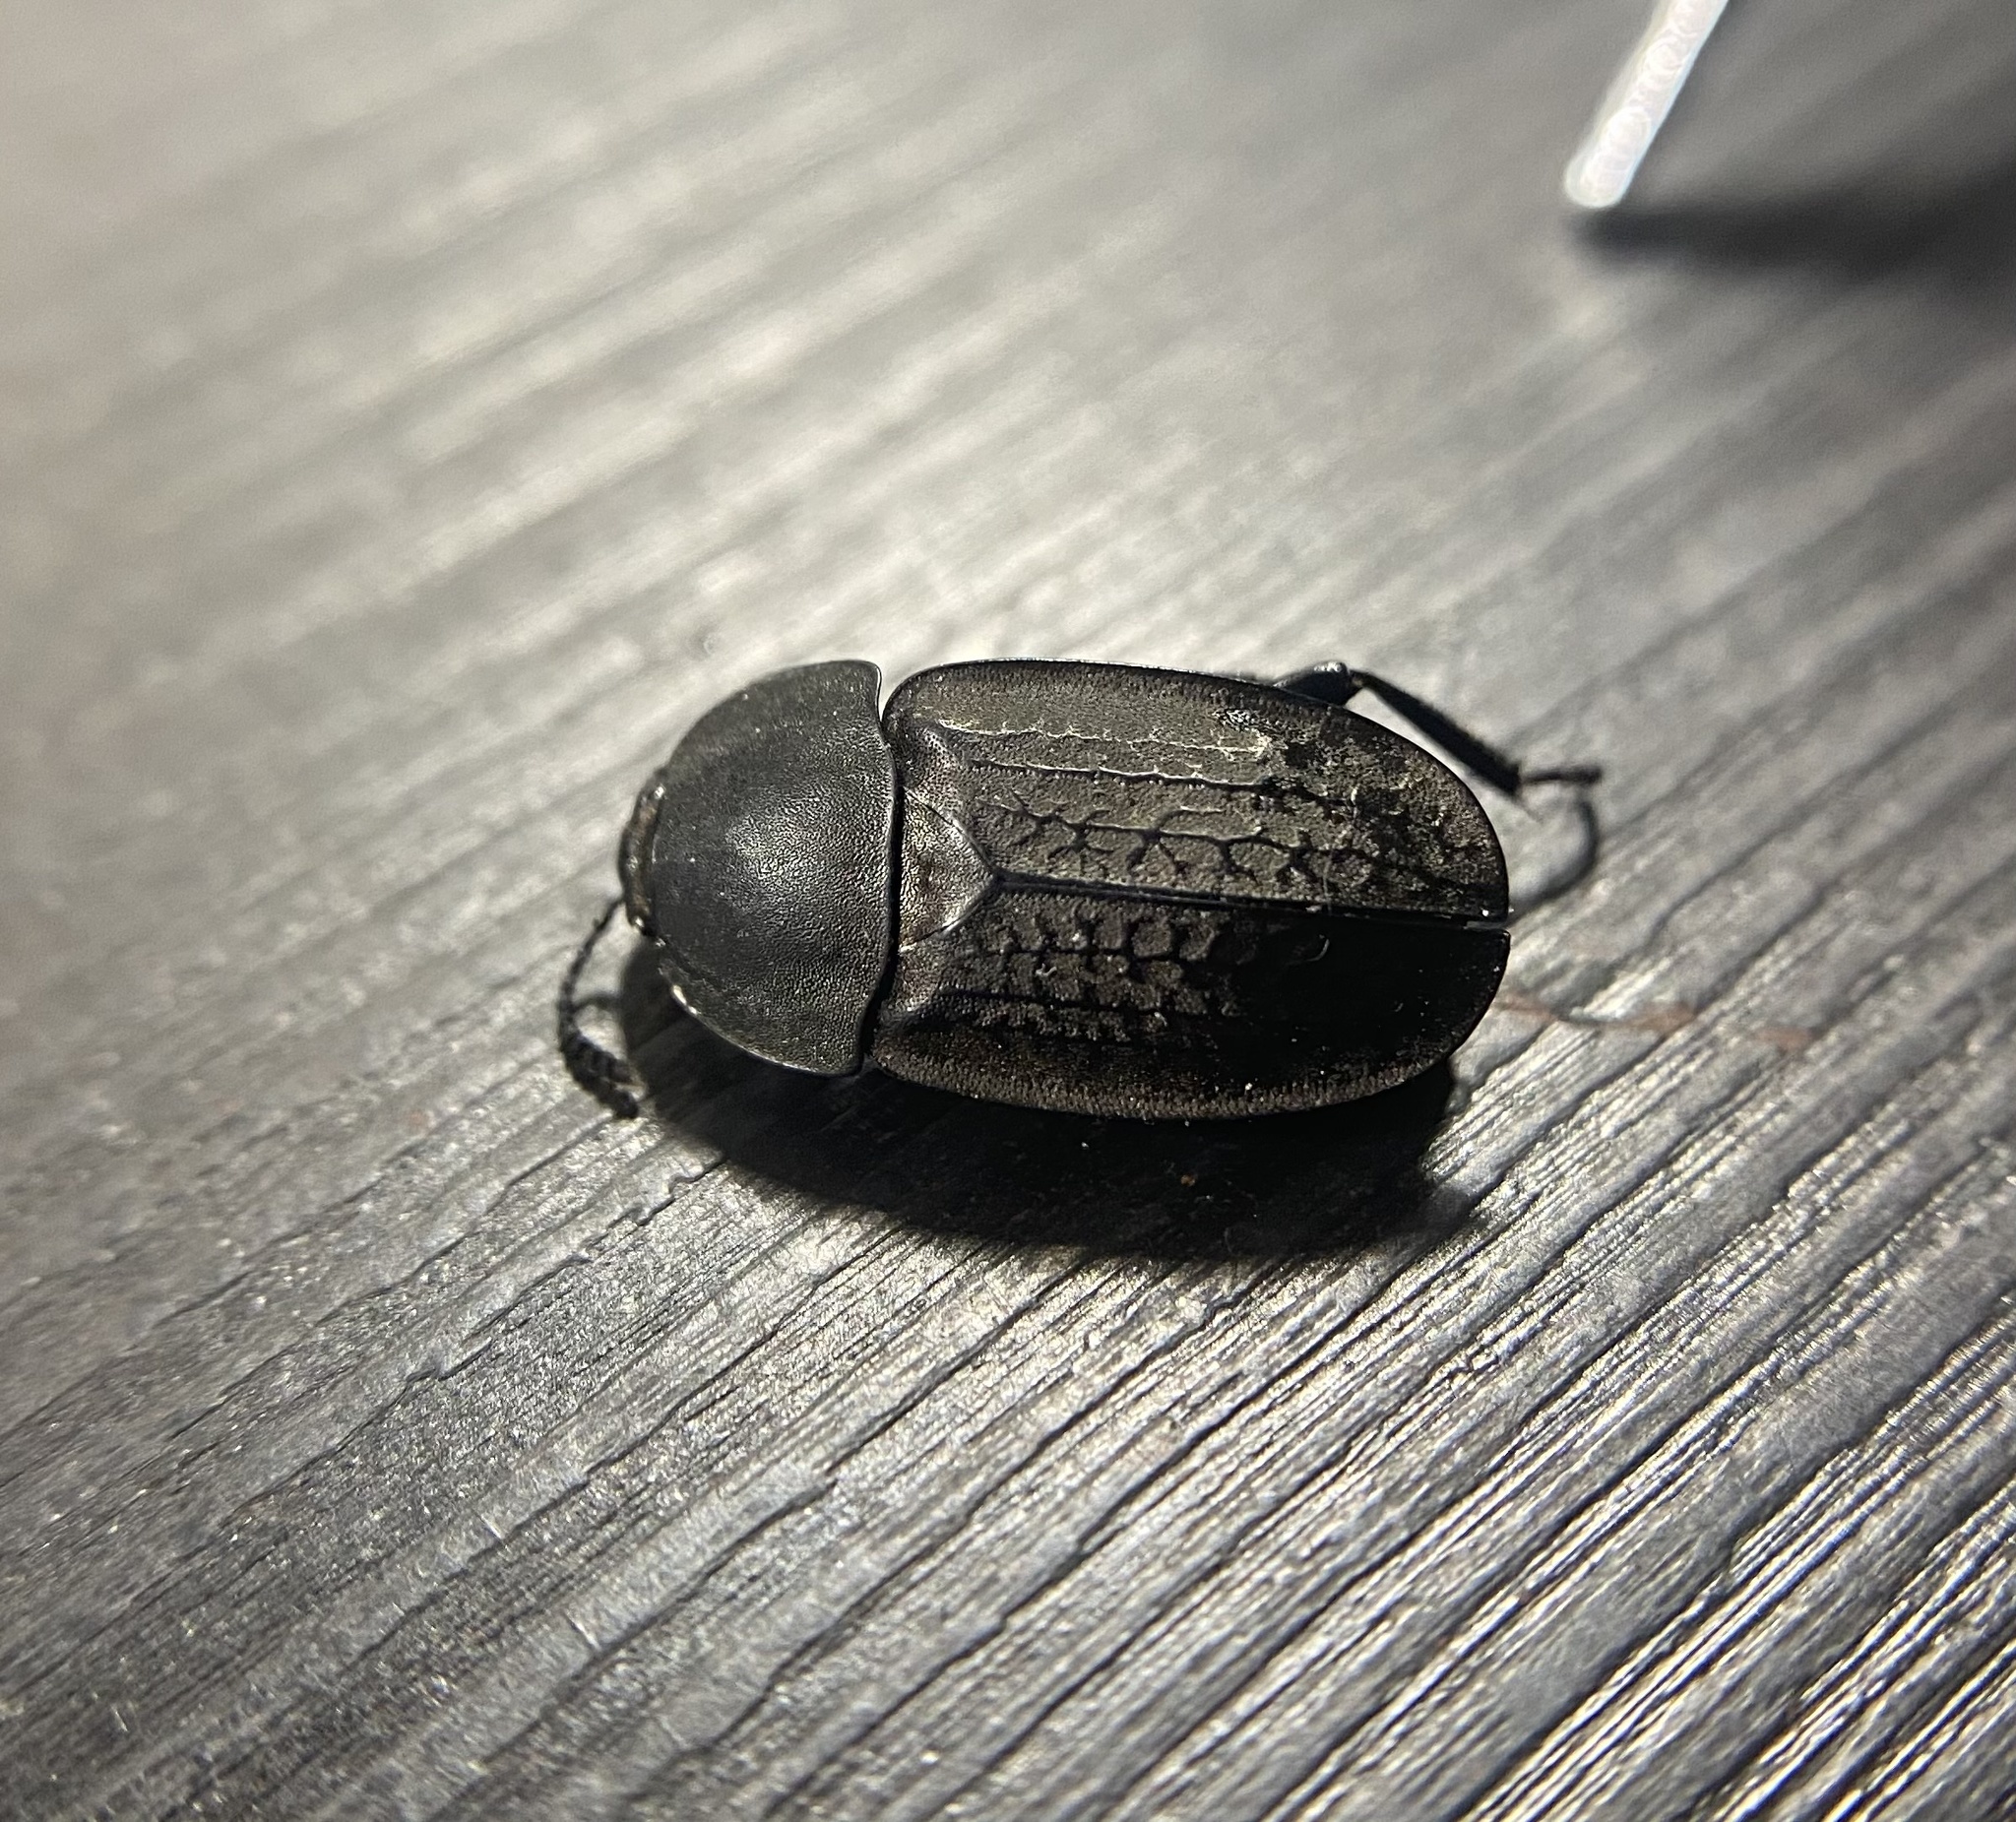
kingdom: Animalia
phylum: Arthropoda
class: Insecta
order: Coleoptera
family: Staphylinidae
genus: Heterosilpha
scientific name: Heterosilpha ramosa
